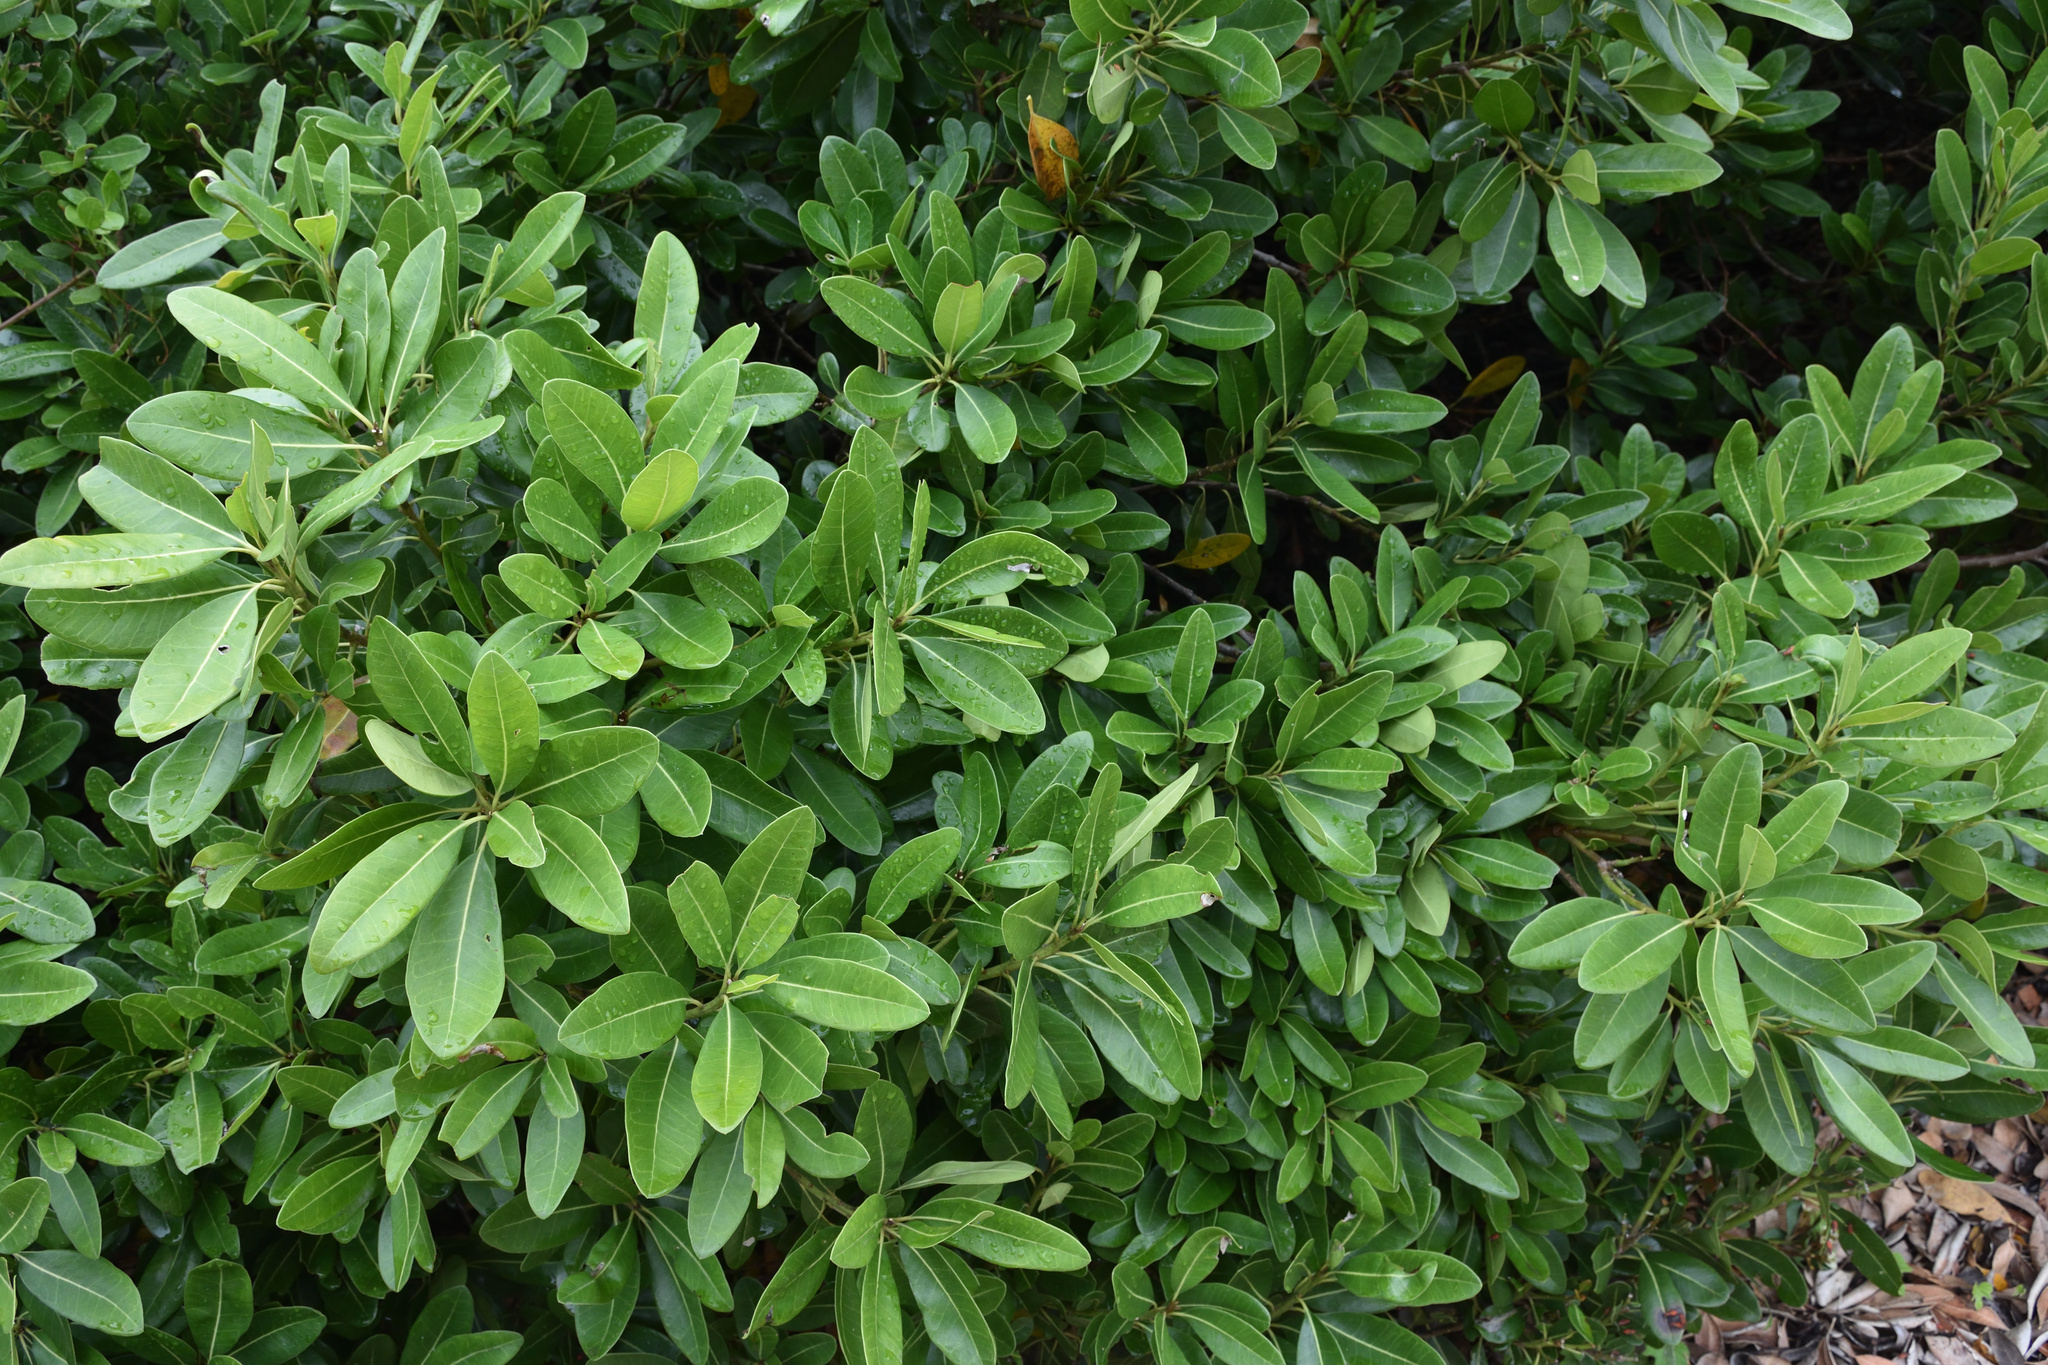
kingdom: Plantae
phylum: Tracheophyta
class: Magnoliopsida
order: Ericales
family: Sapotaceae
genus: Sideroxylon
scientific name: Sideroxylon inerme
